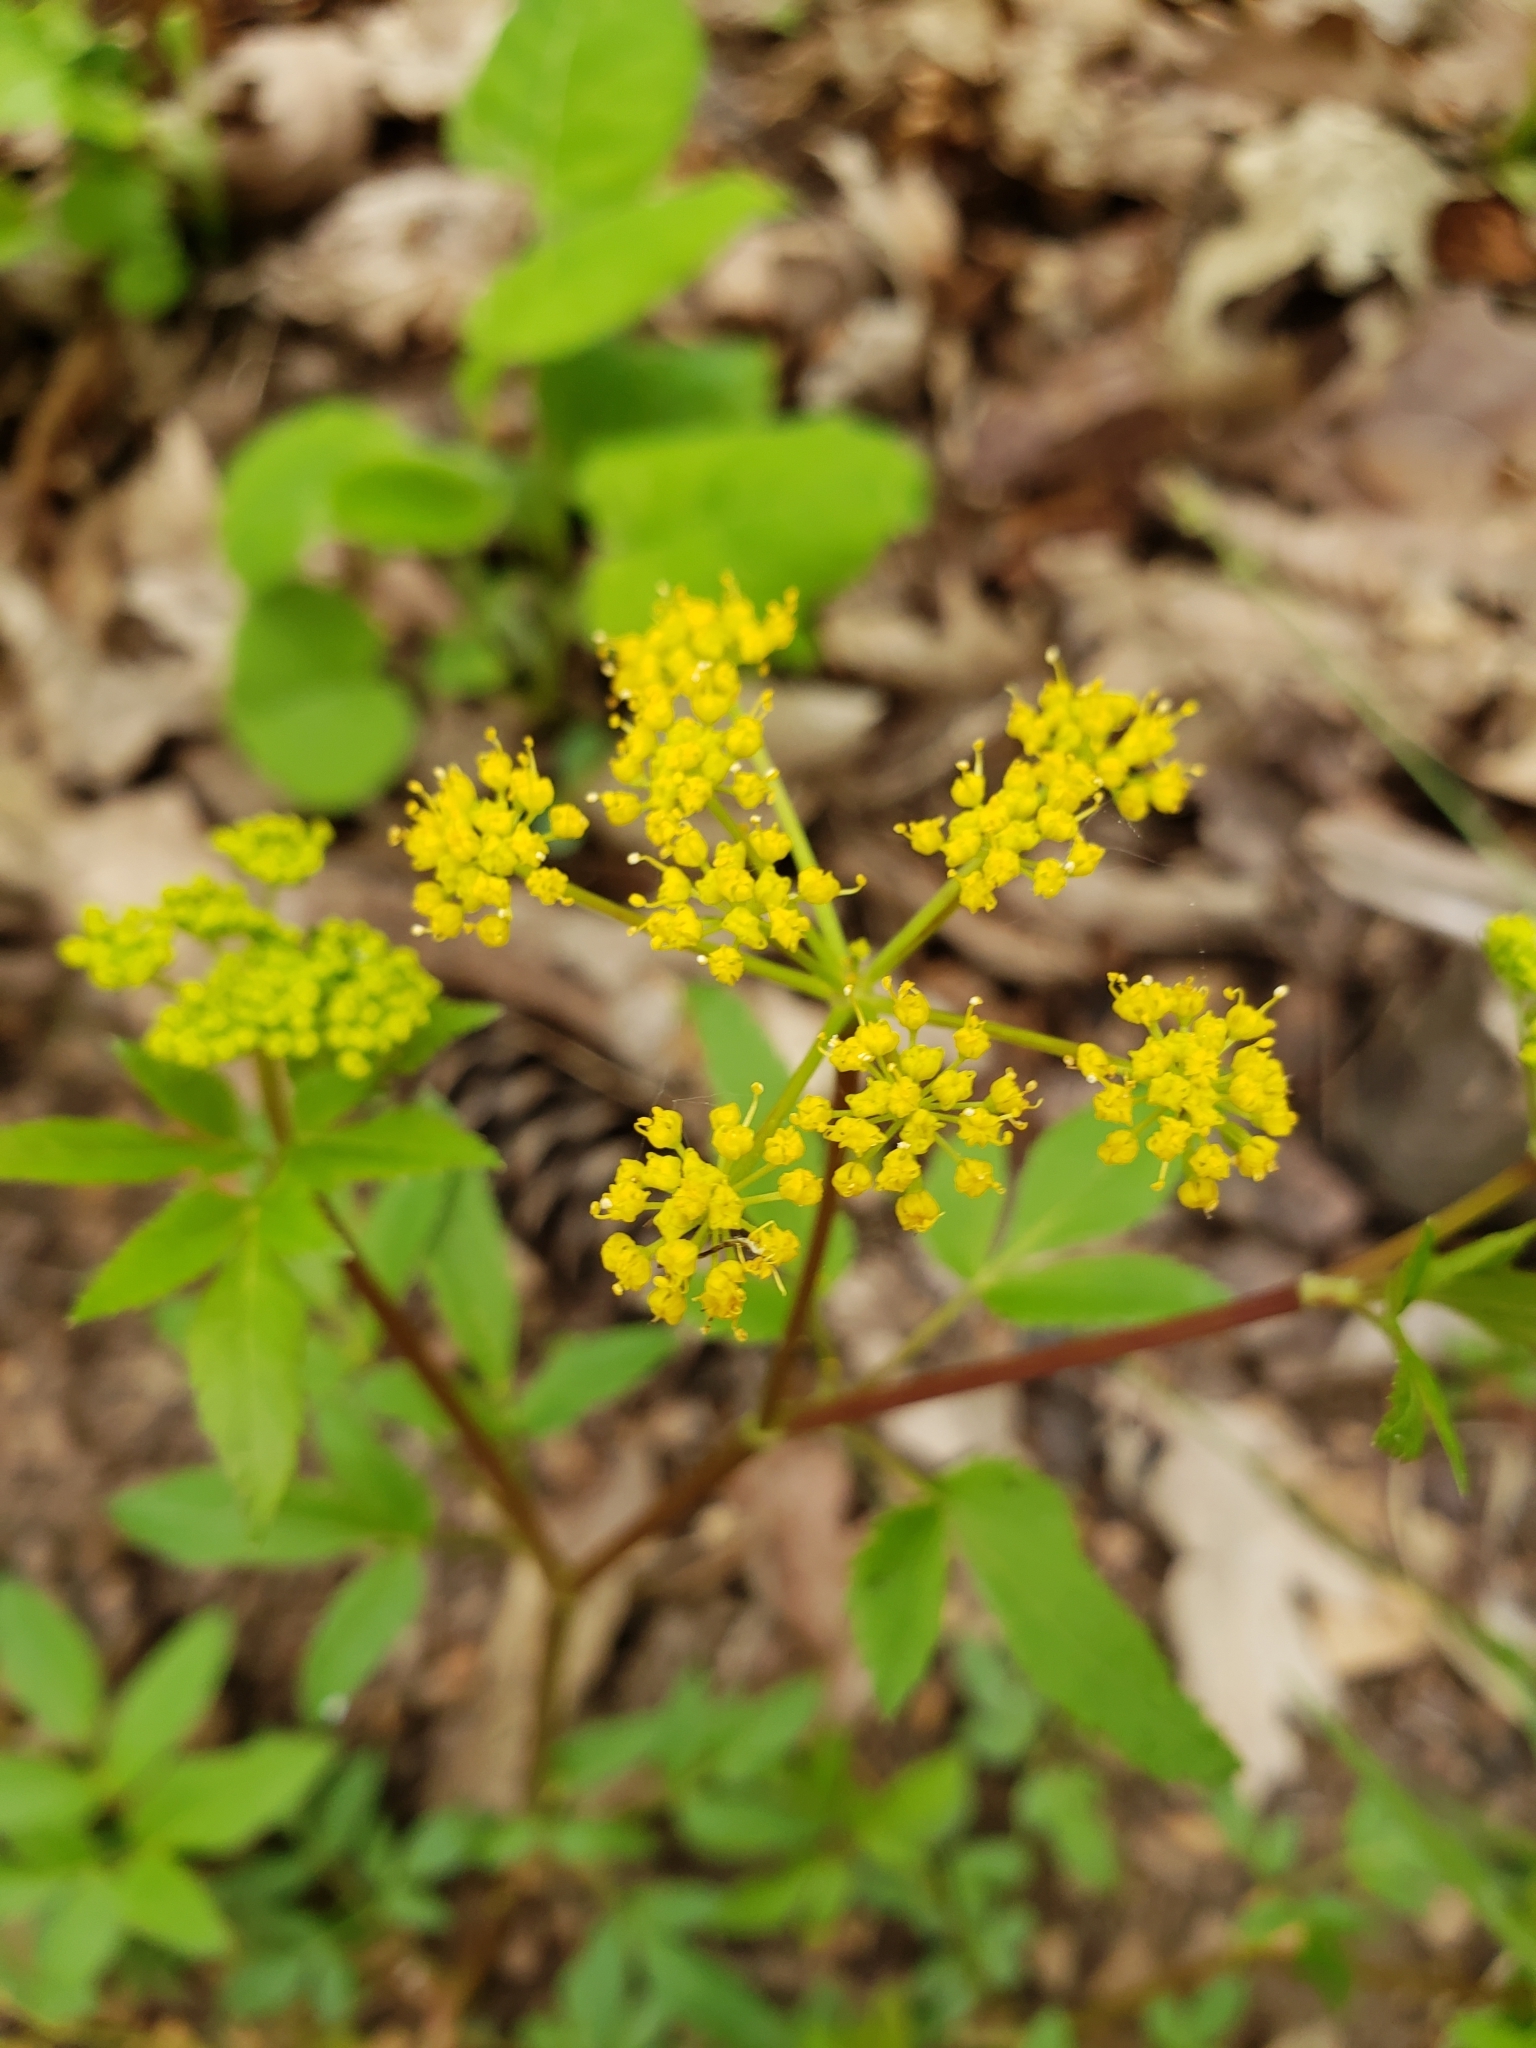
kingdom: Plantae
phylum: Tracheophyta
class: Magnoliopsida
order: Apiales
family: Apiaceae
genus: Zizia
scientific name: Zizia aurea
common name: Golden alexanders
